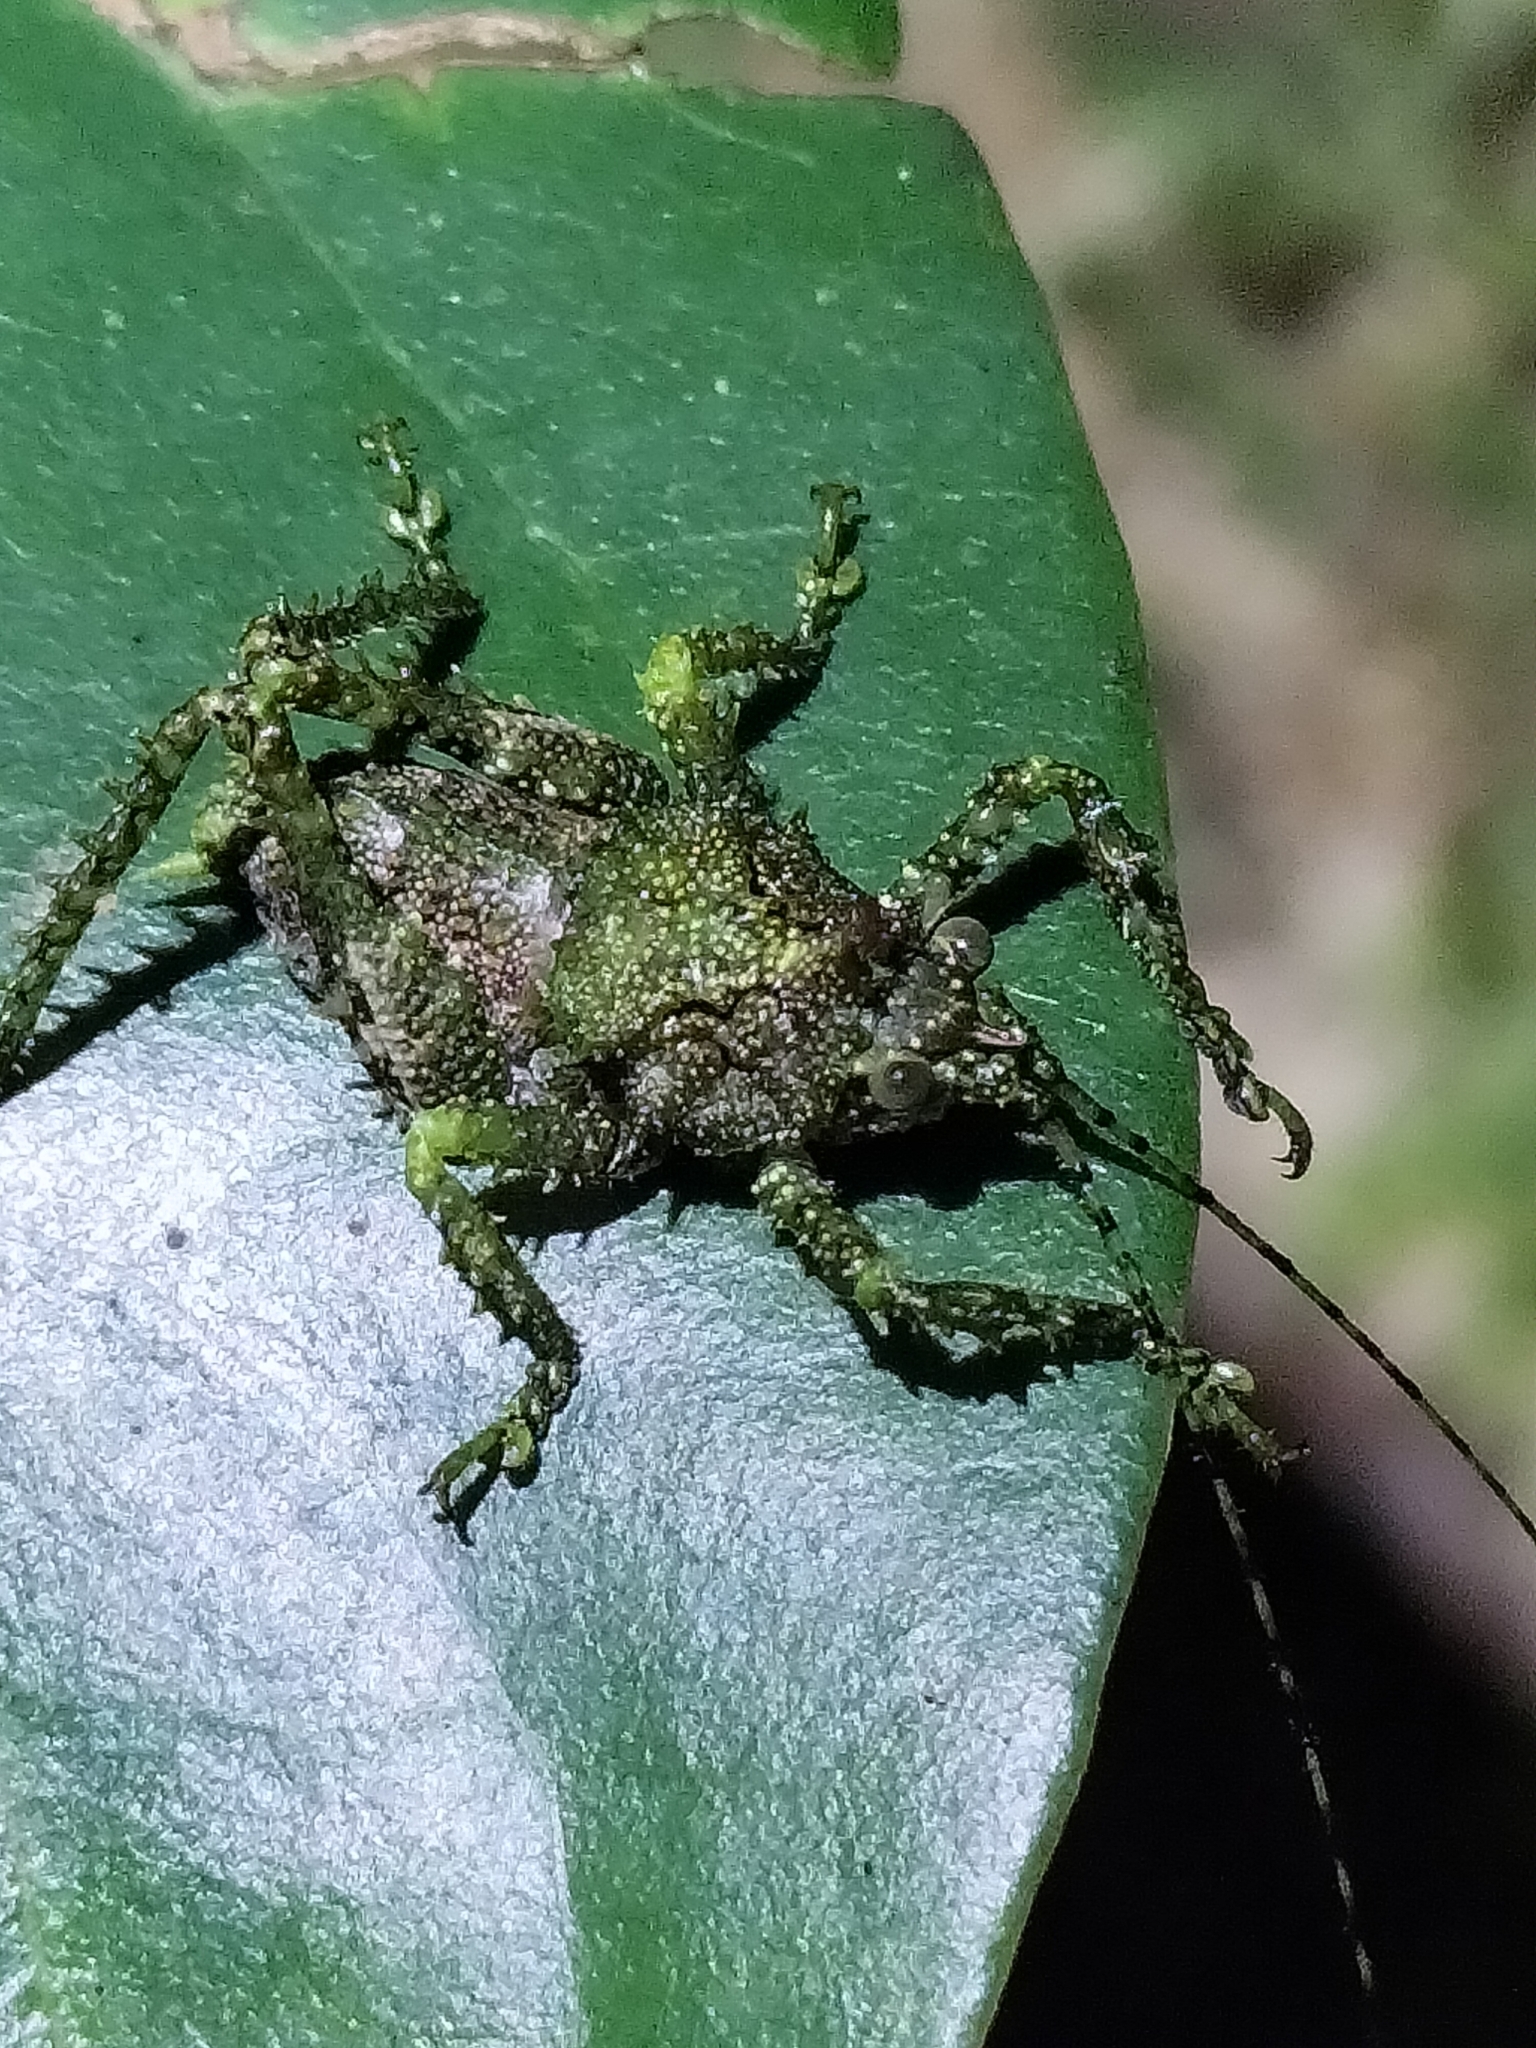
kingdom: Animalia
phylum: Arthropoda
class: Insecta
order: Orthoptera
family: Tettigoniidae
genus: Lichenagraecia
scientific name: Lichenagraecia cataphracta
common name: Queensland lichen-mimicking katydid
